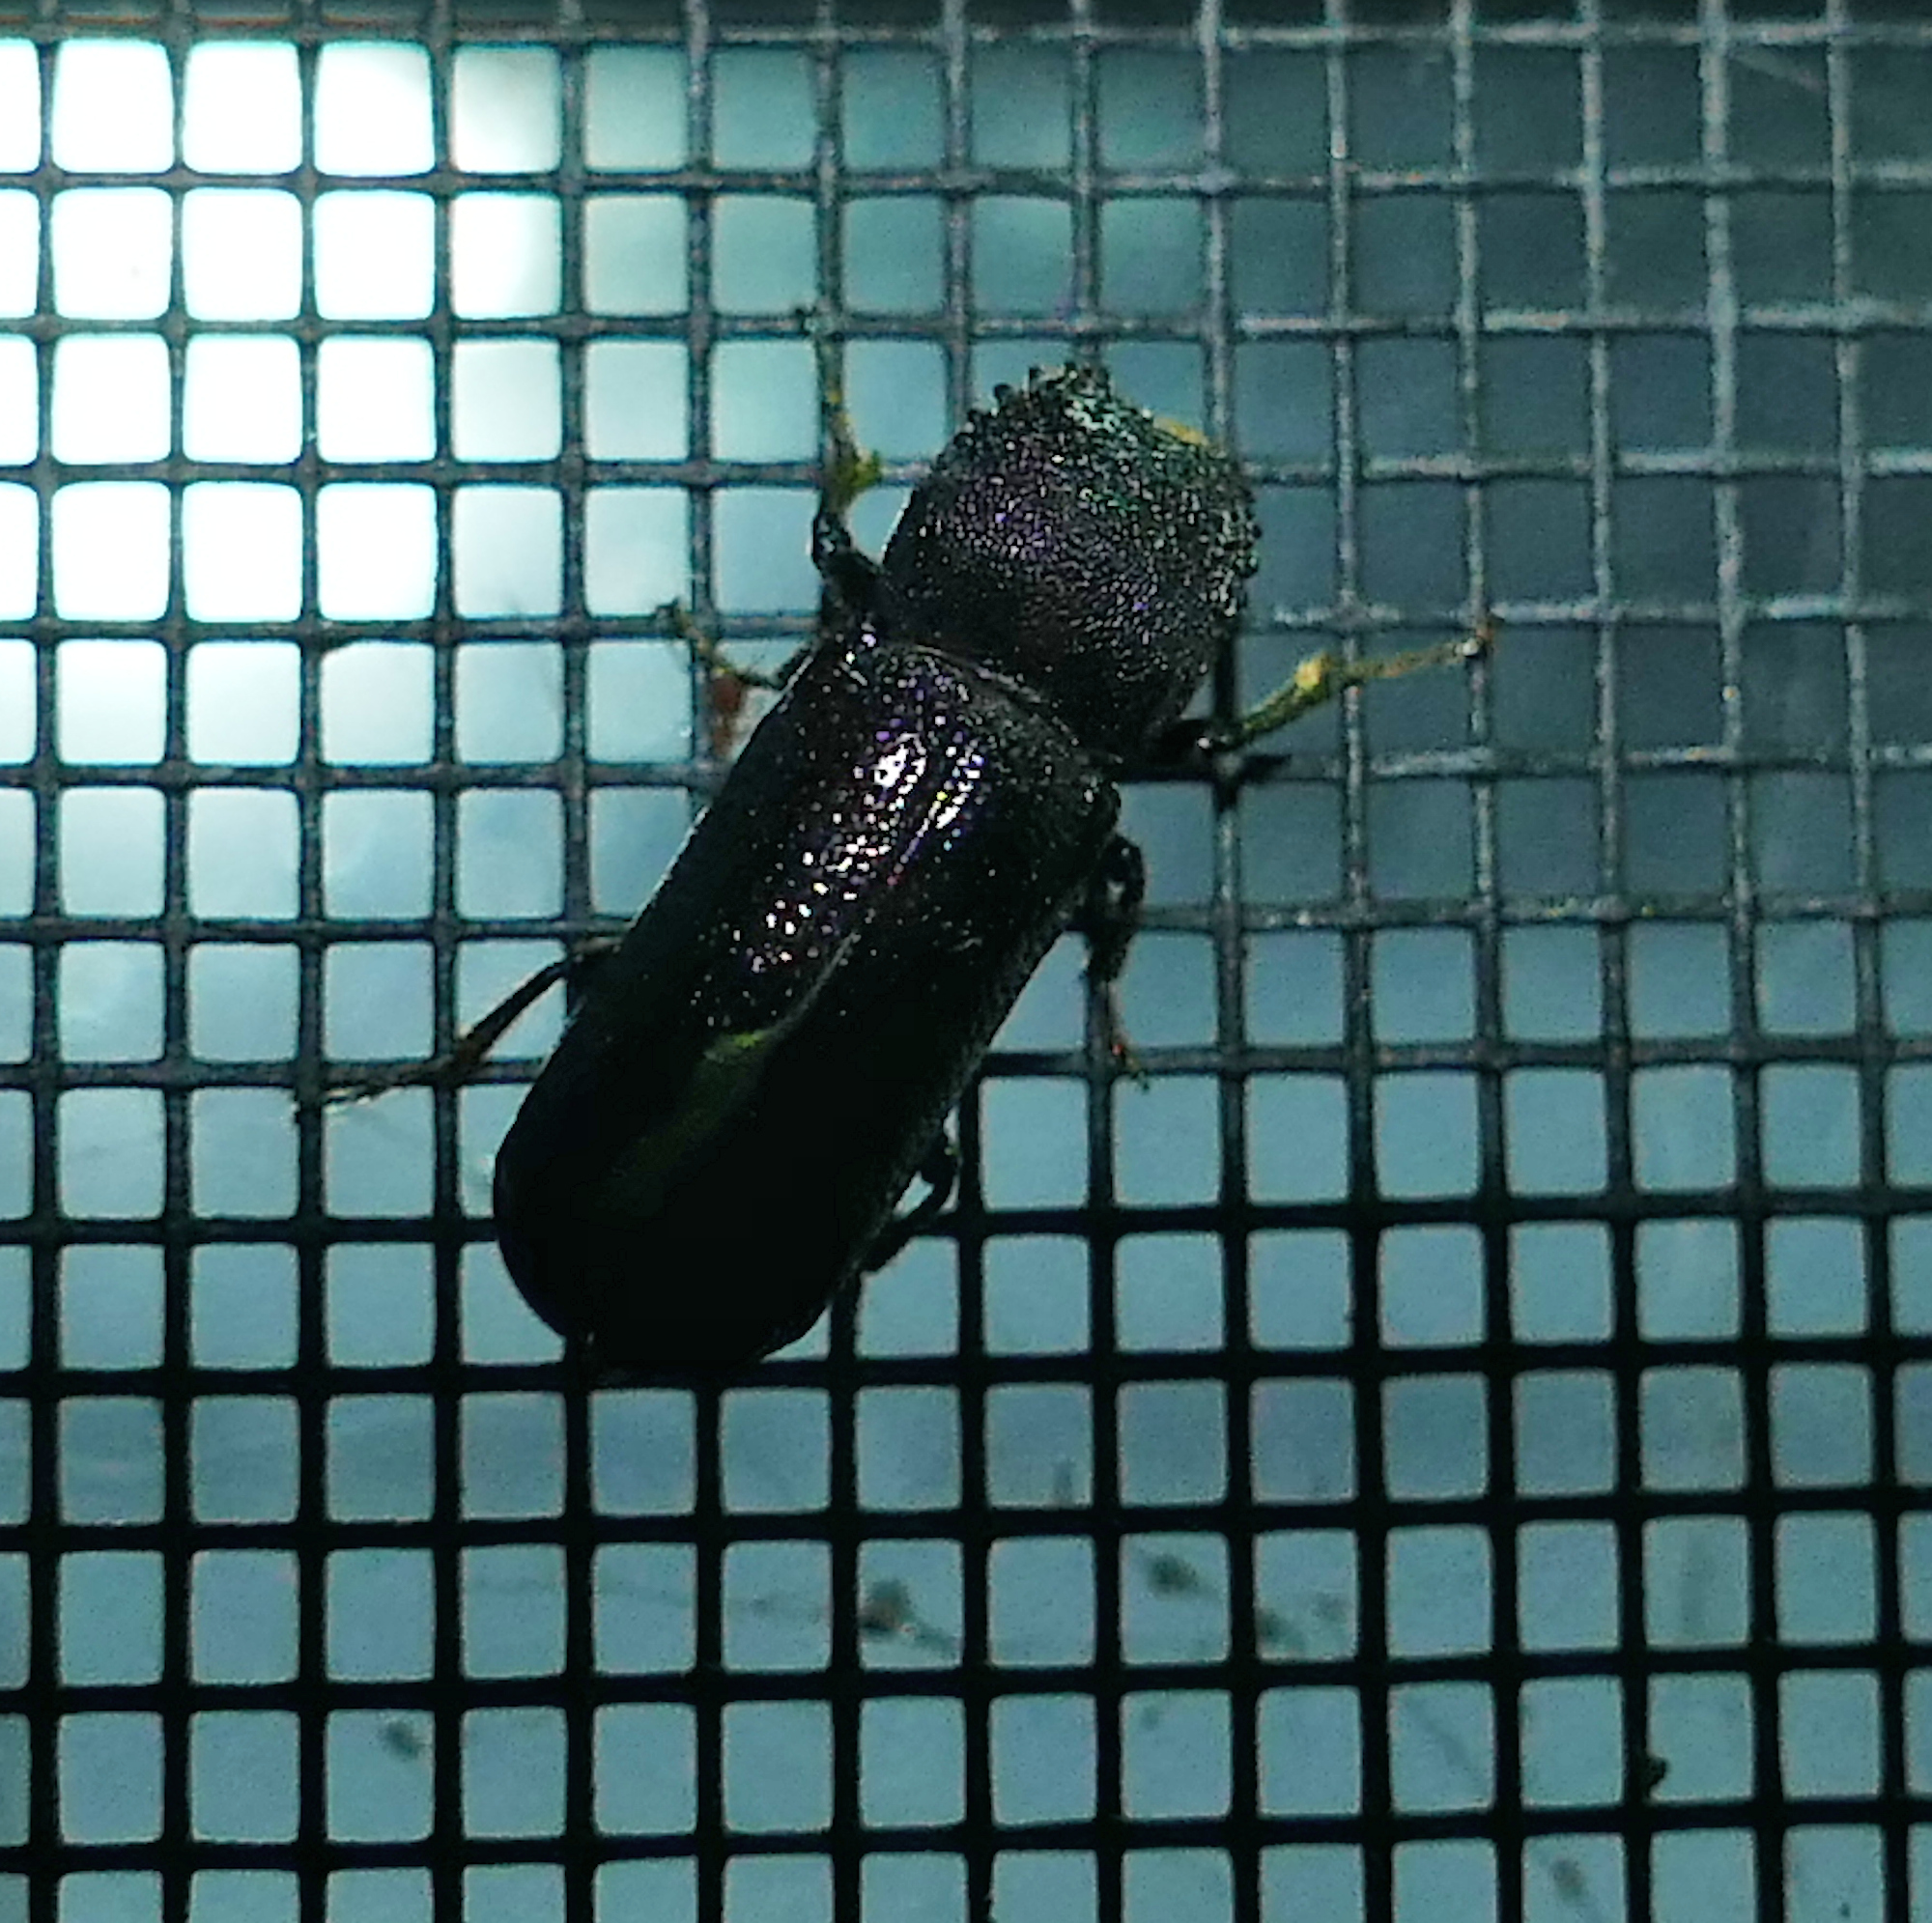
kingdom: Animalia
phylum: Arthropoda
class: Insecta
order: Coleoptera
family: Bostrichidae
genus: Amphicerus
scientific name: Amphicerus cornutus
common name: Powderpost beetle
